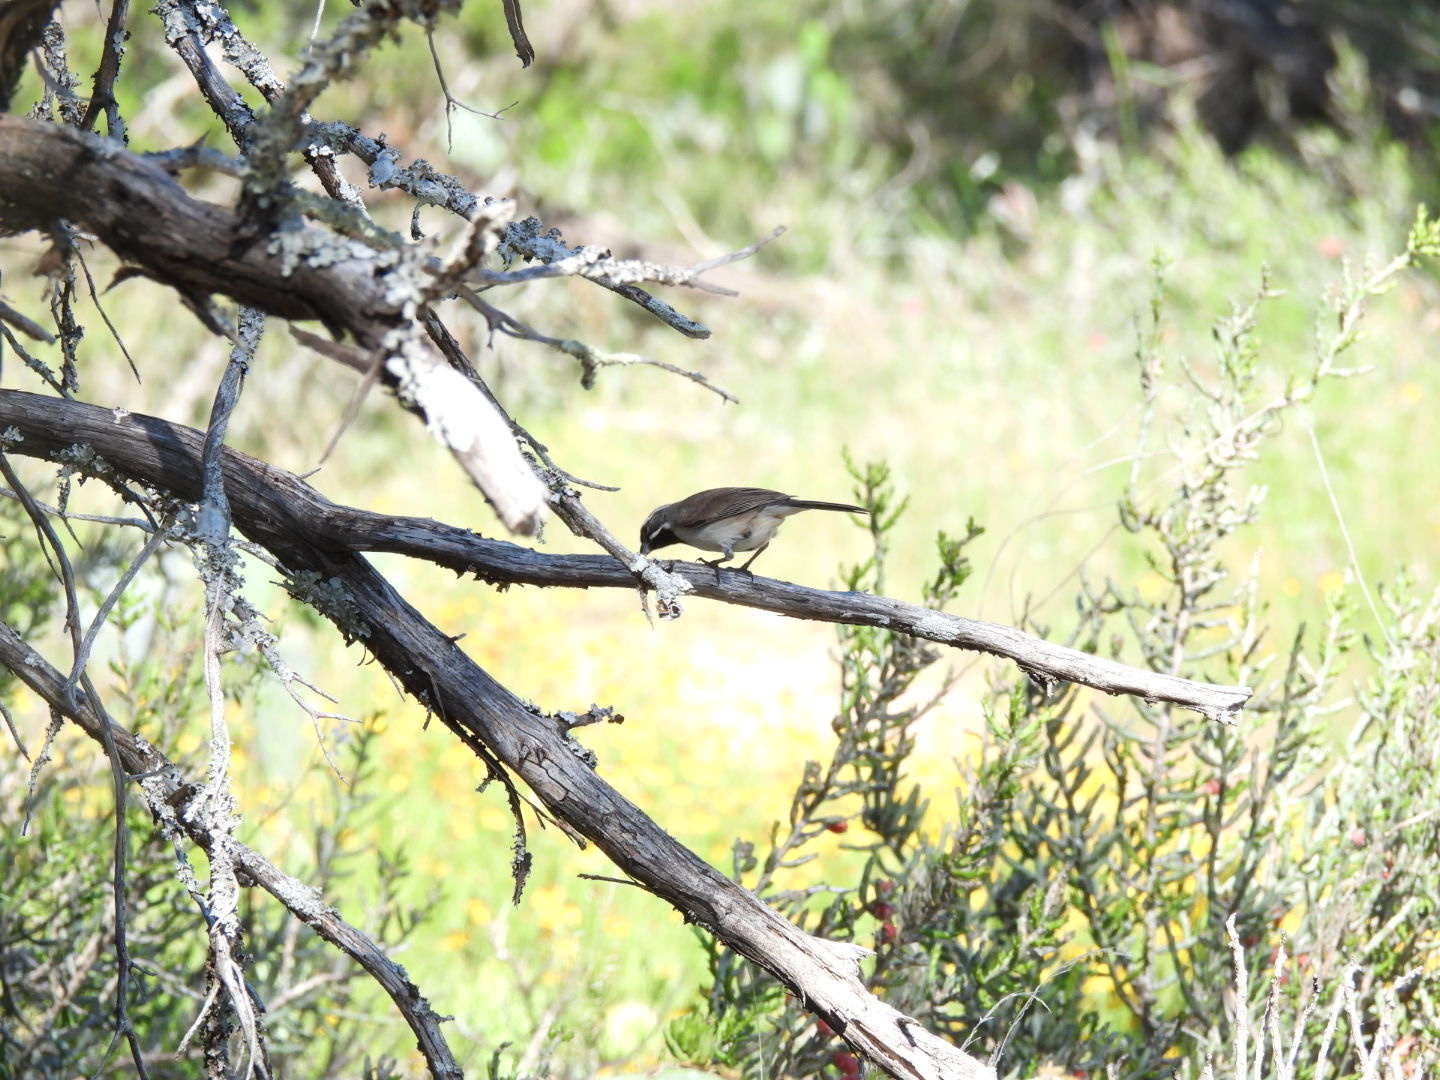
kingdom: Animalia
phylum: Chordata
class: Aves
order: Passeriformes
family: Passerellidae
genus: Amphispiza
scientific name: Amphispiza bilineata
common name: Black-throated sparrow
